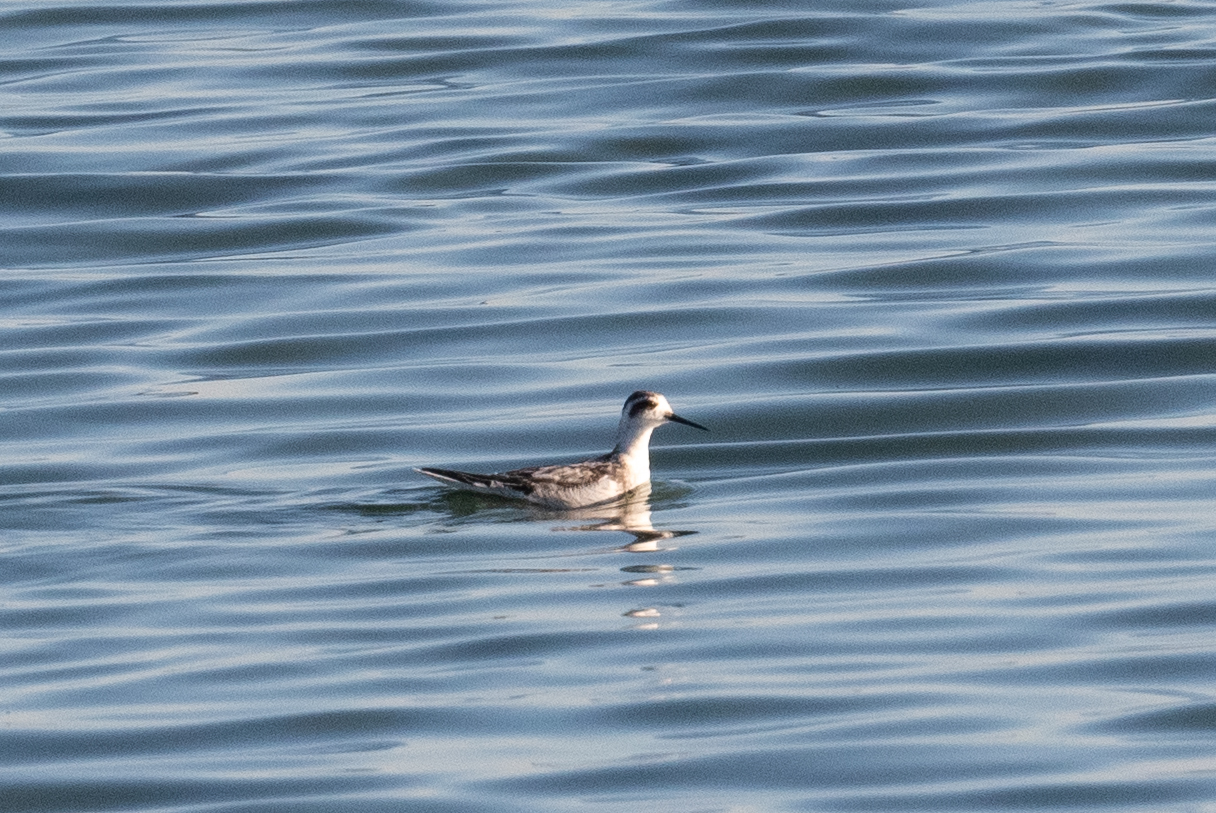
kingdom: Animalia
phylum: Chordata
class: Aves
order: Charadriiformes
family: Scolopacidae
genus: Phalaropus
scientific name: Phalaropus lobatus
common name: Red-necked phalarope
